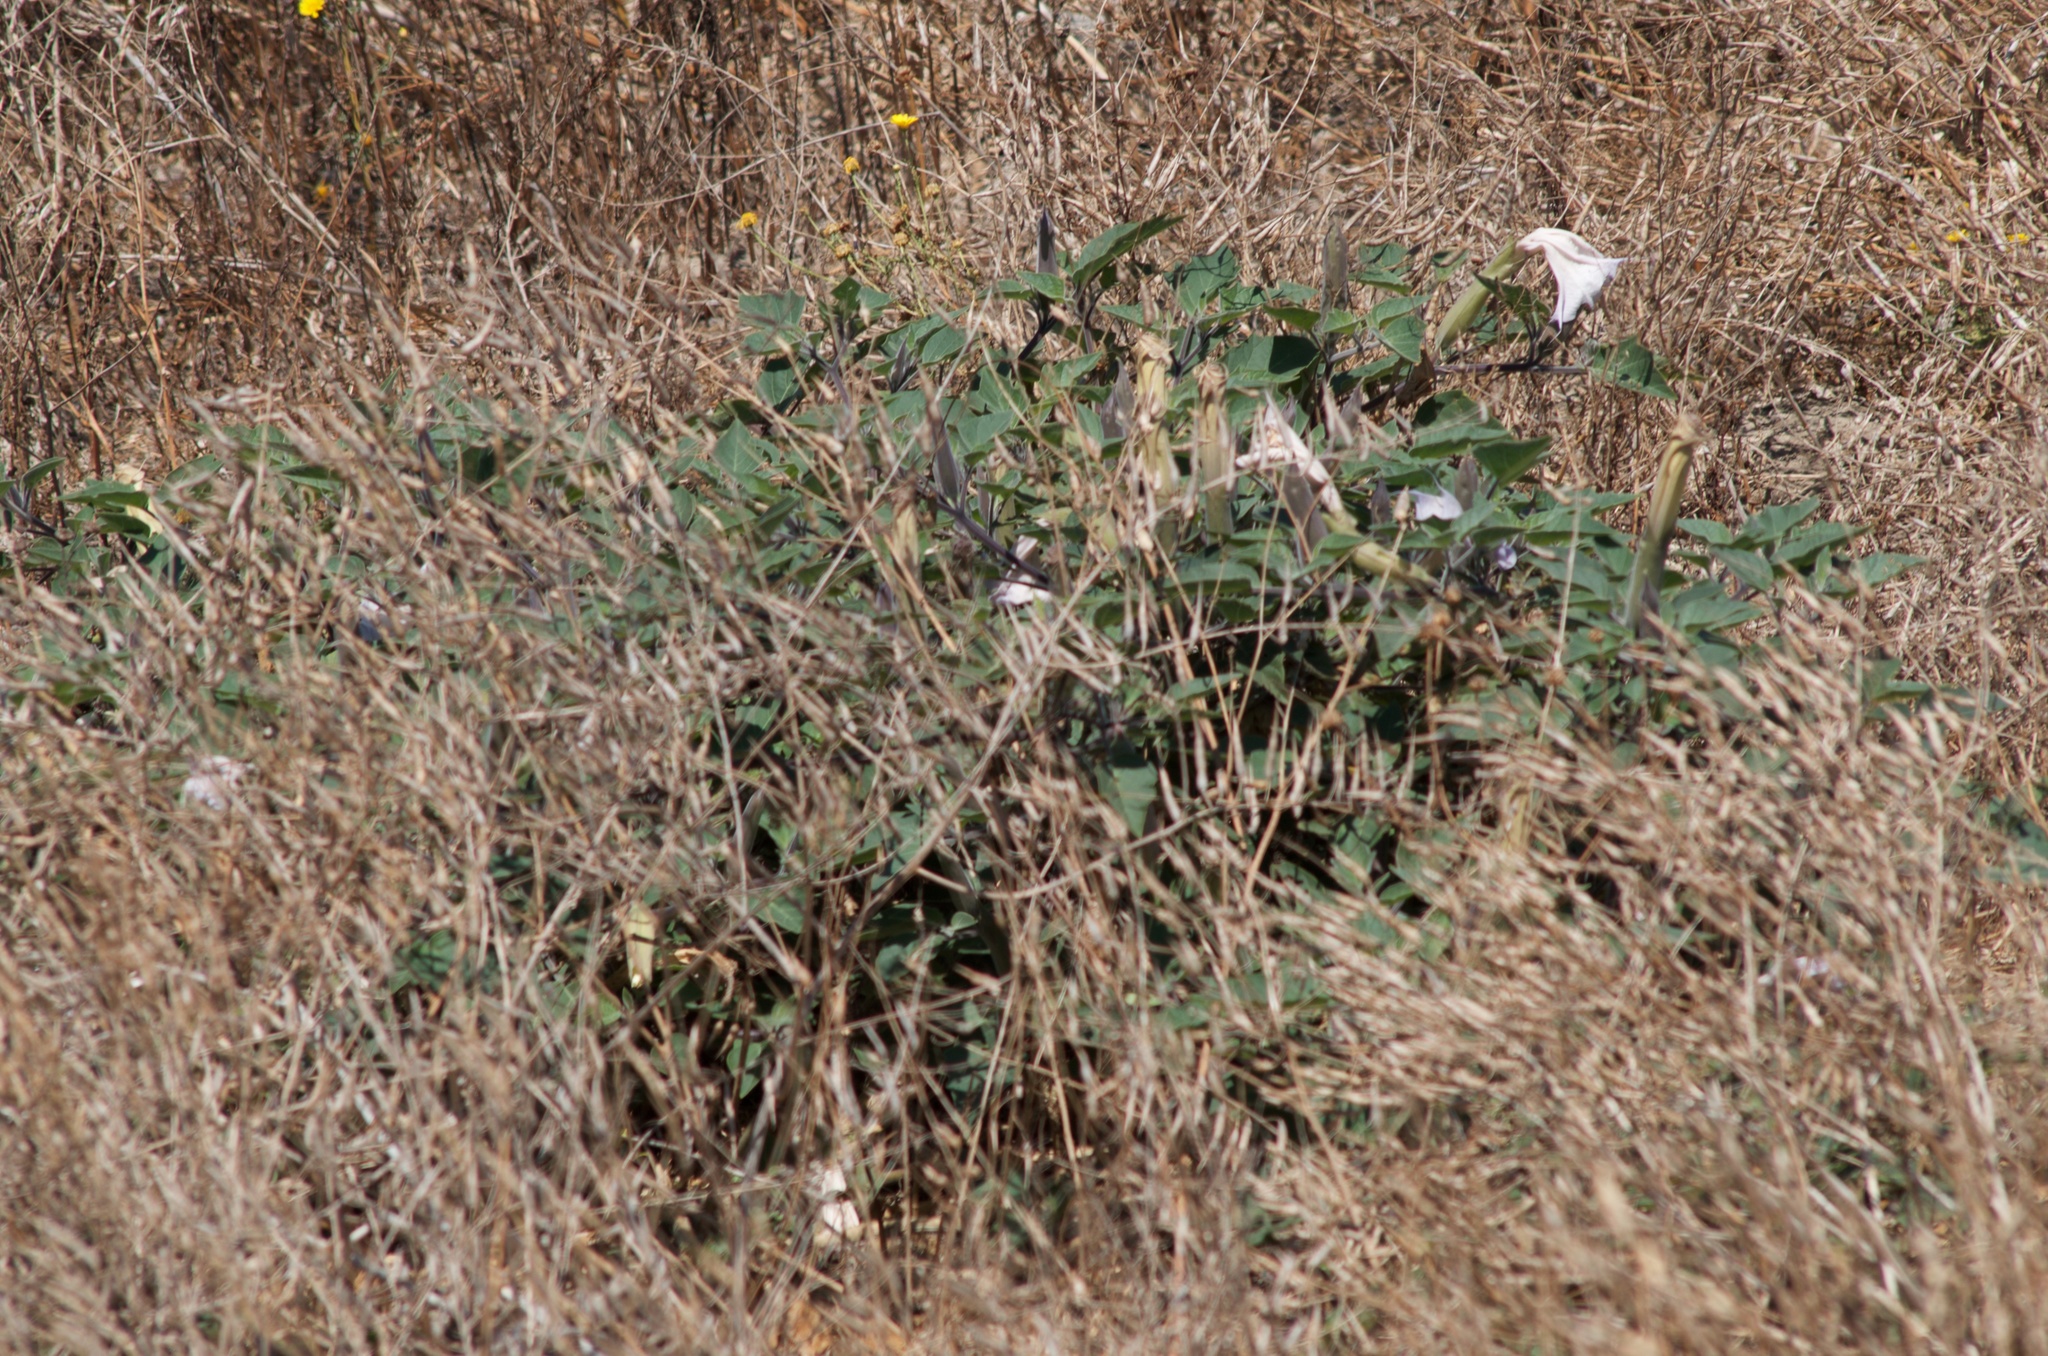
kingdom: Plantae
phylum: Tracheophyta
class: Magnoliopsida
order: Solanales
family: Solanaceae
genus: Datura
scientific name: Datura wrightii
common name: Sacred thorn-apple
